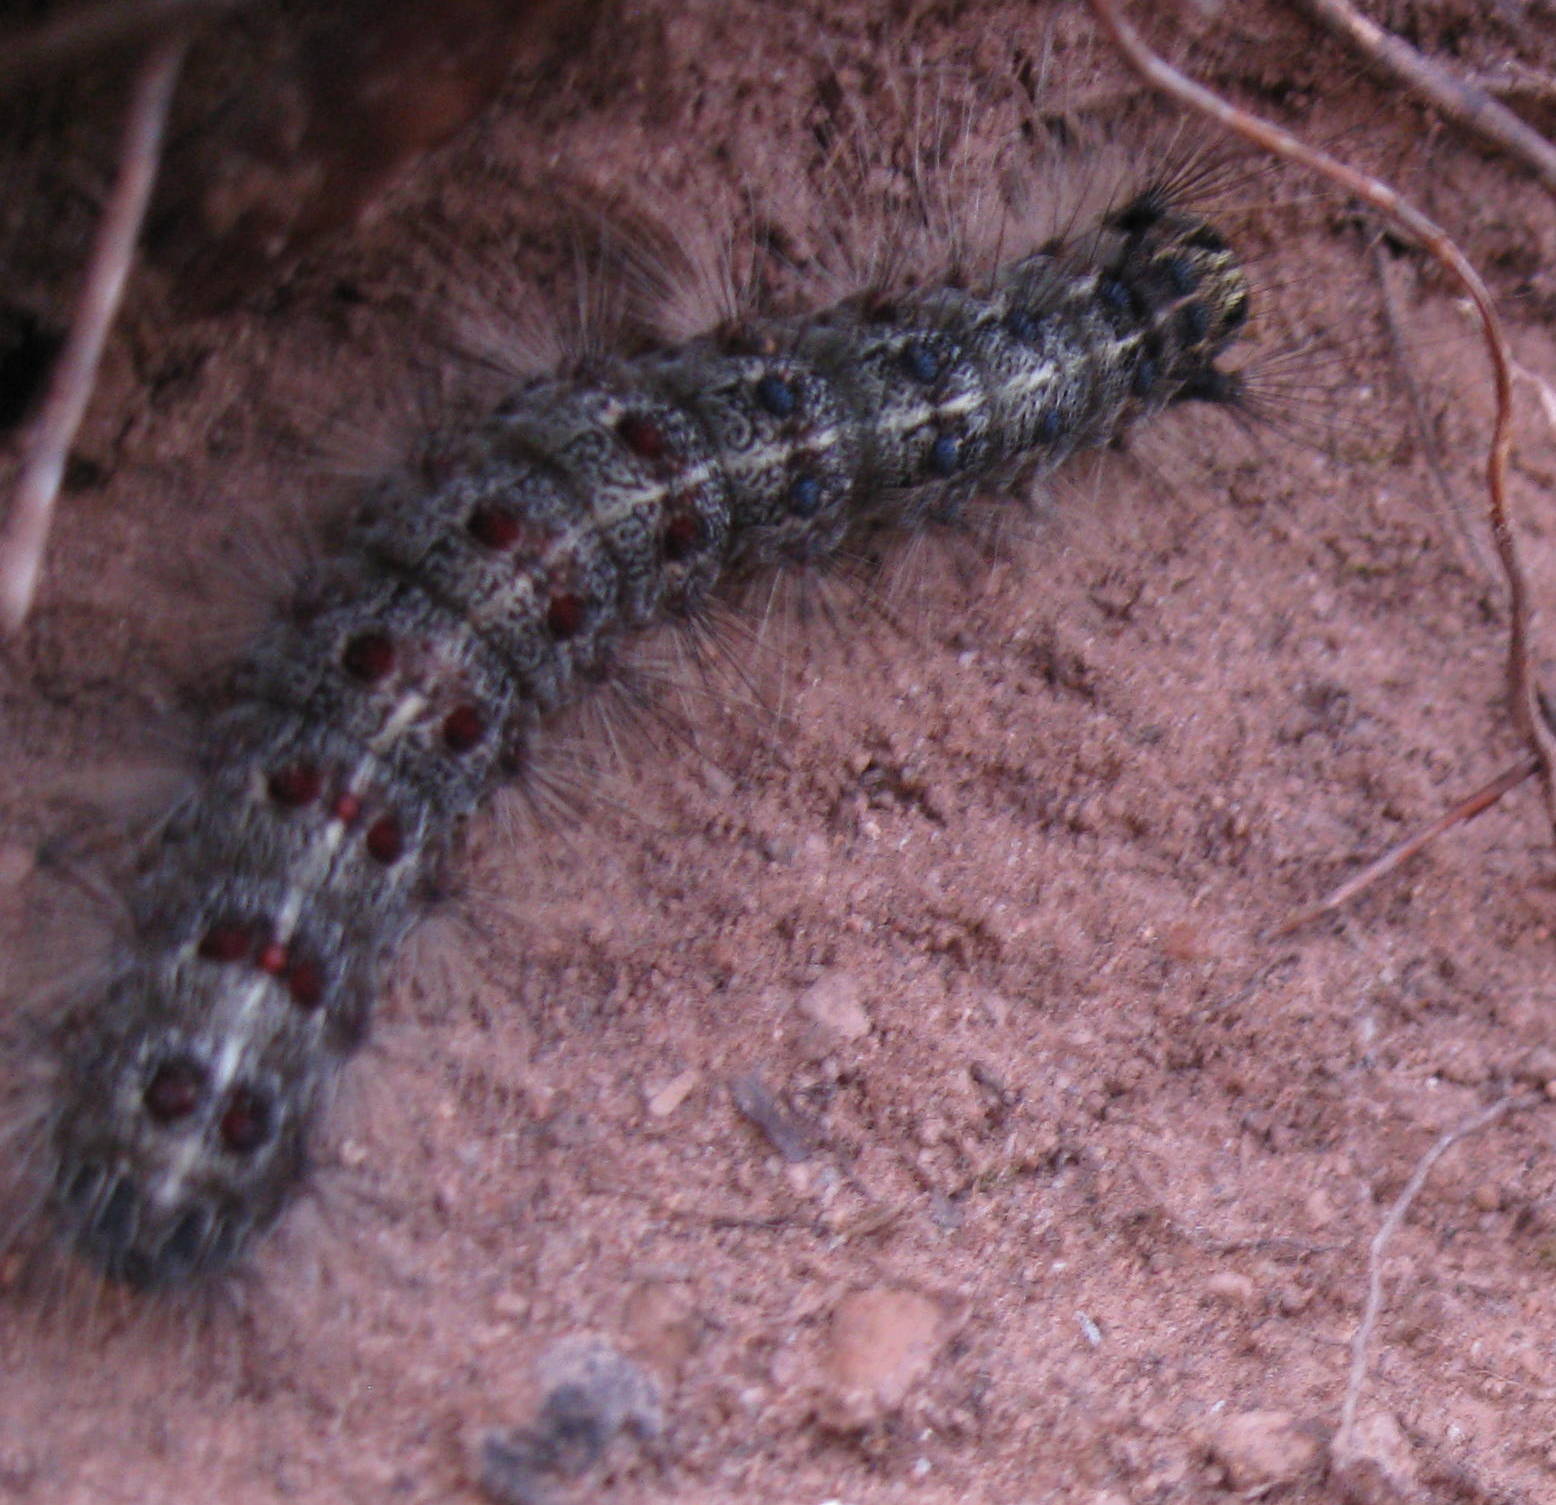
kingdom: Animalia
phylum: Arthropoda
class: Insecta
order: Lepidoptera
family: Erebidae
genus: Lymantria
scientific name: Lymantria dispar
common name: Gypsy moth
